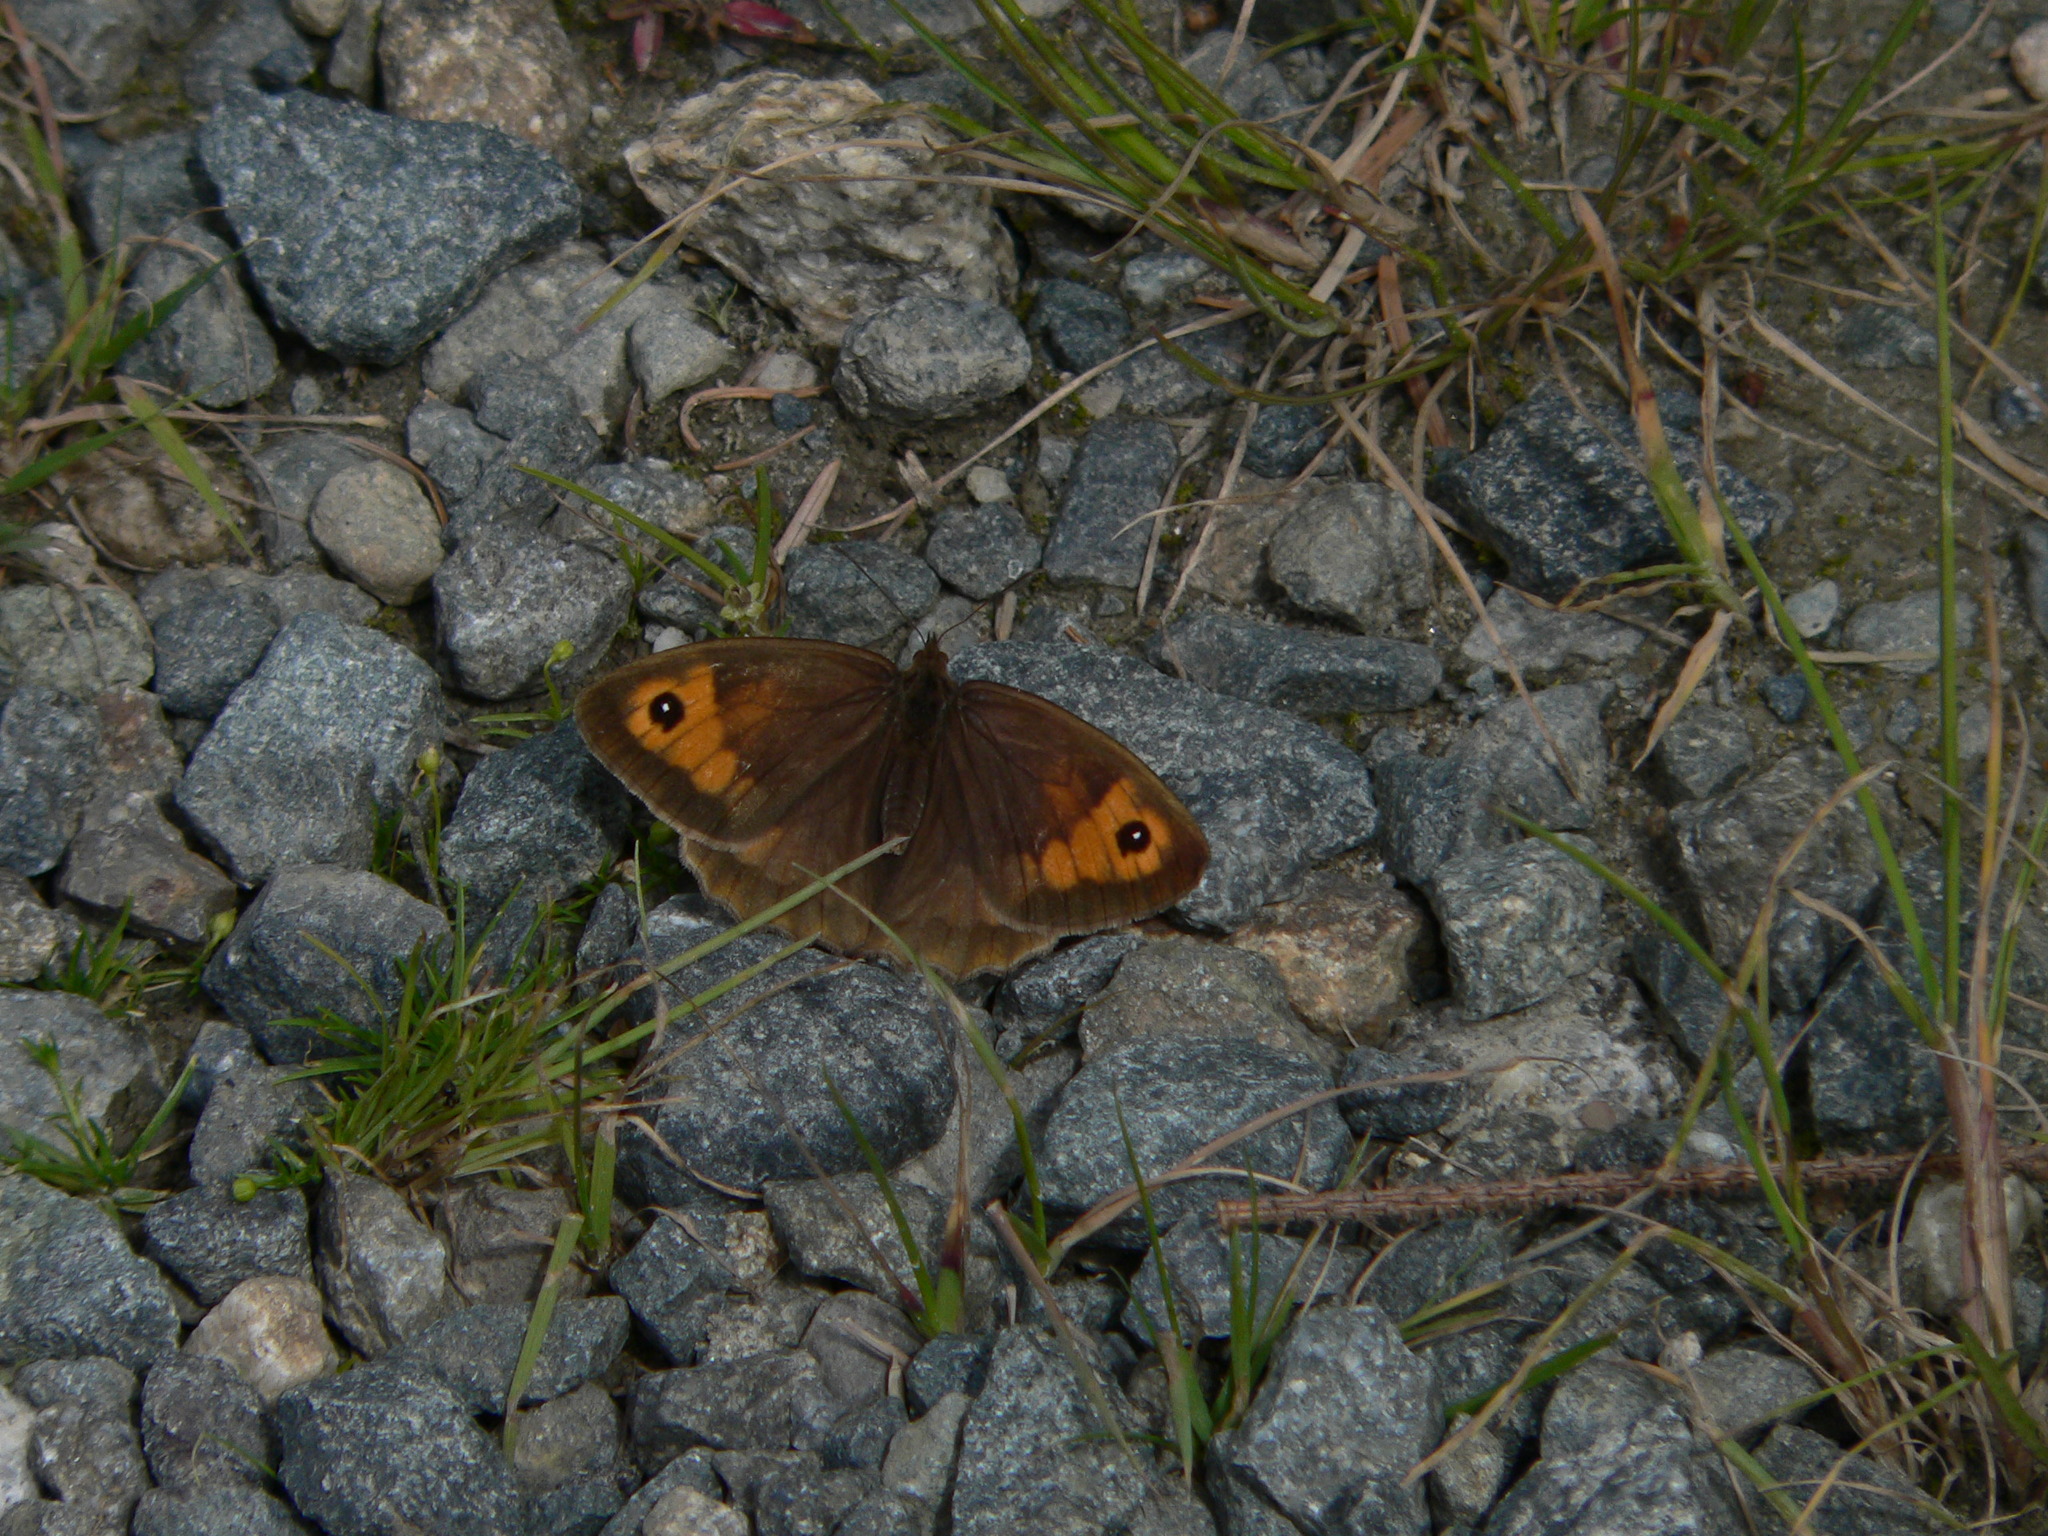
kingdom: Animalia
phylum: Arthropoda
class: Insecta
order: Lepidoptera
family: Nymphalidae
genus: Maniola
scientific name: Maniola jurtina
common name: Meadow brown
